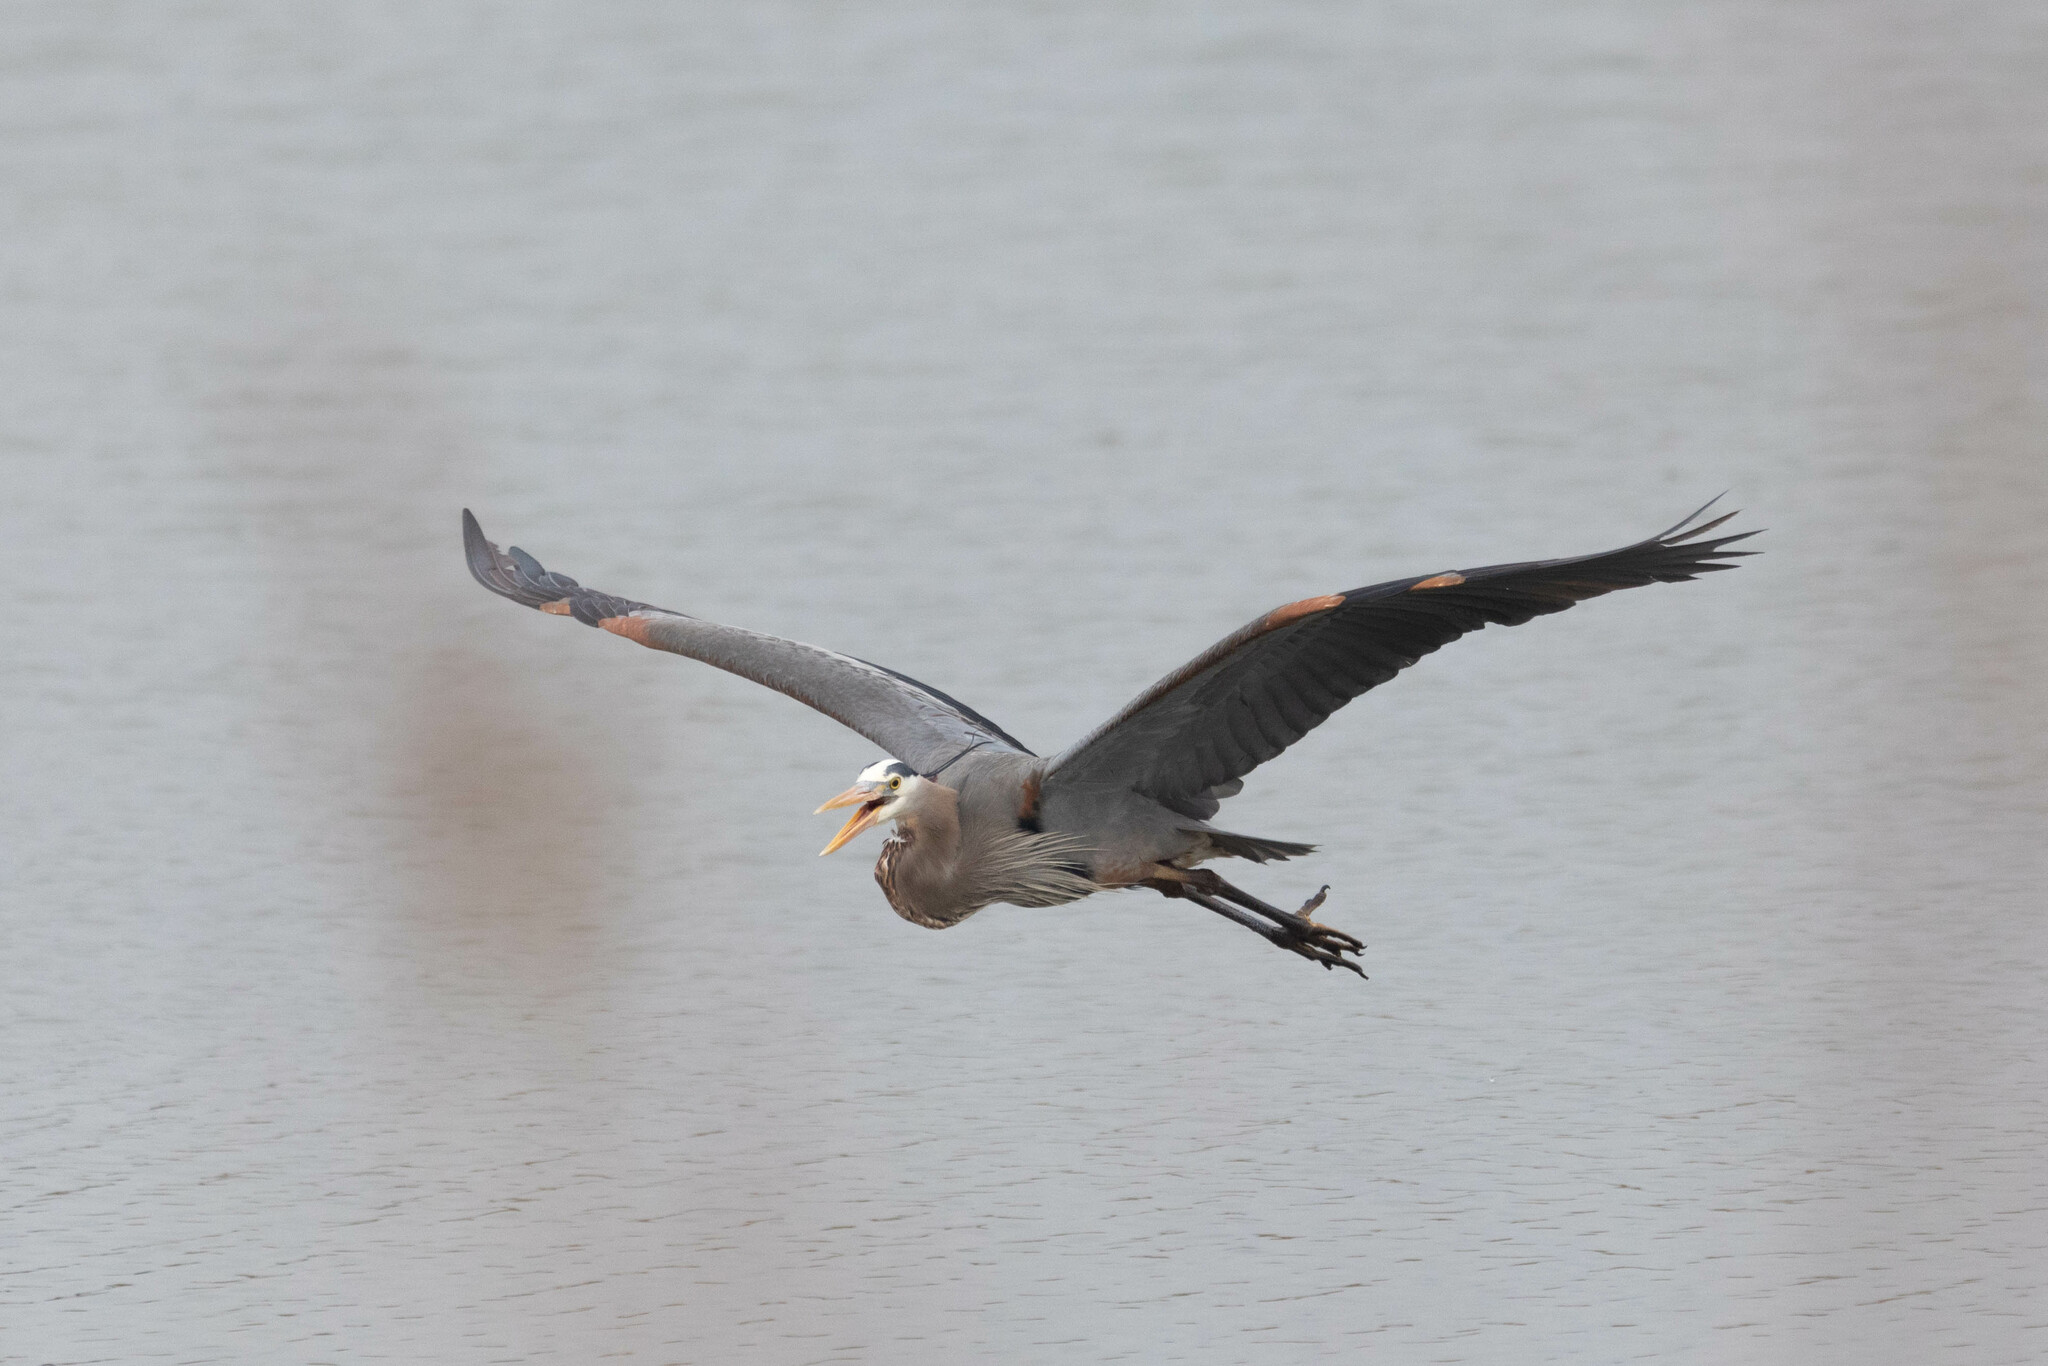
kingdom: Animalia
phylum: Chordata
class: Aves
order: Pelecaniformes
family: Ardeidae
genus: Ardea
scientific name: Ardea herodias
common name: Great blue heron
